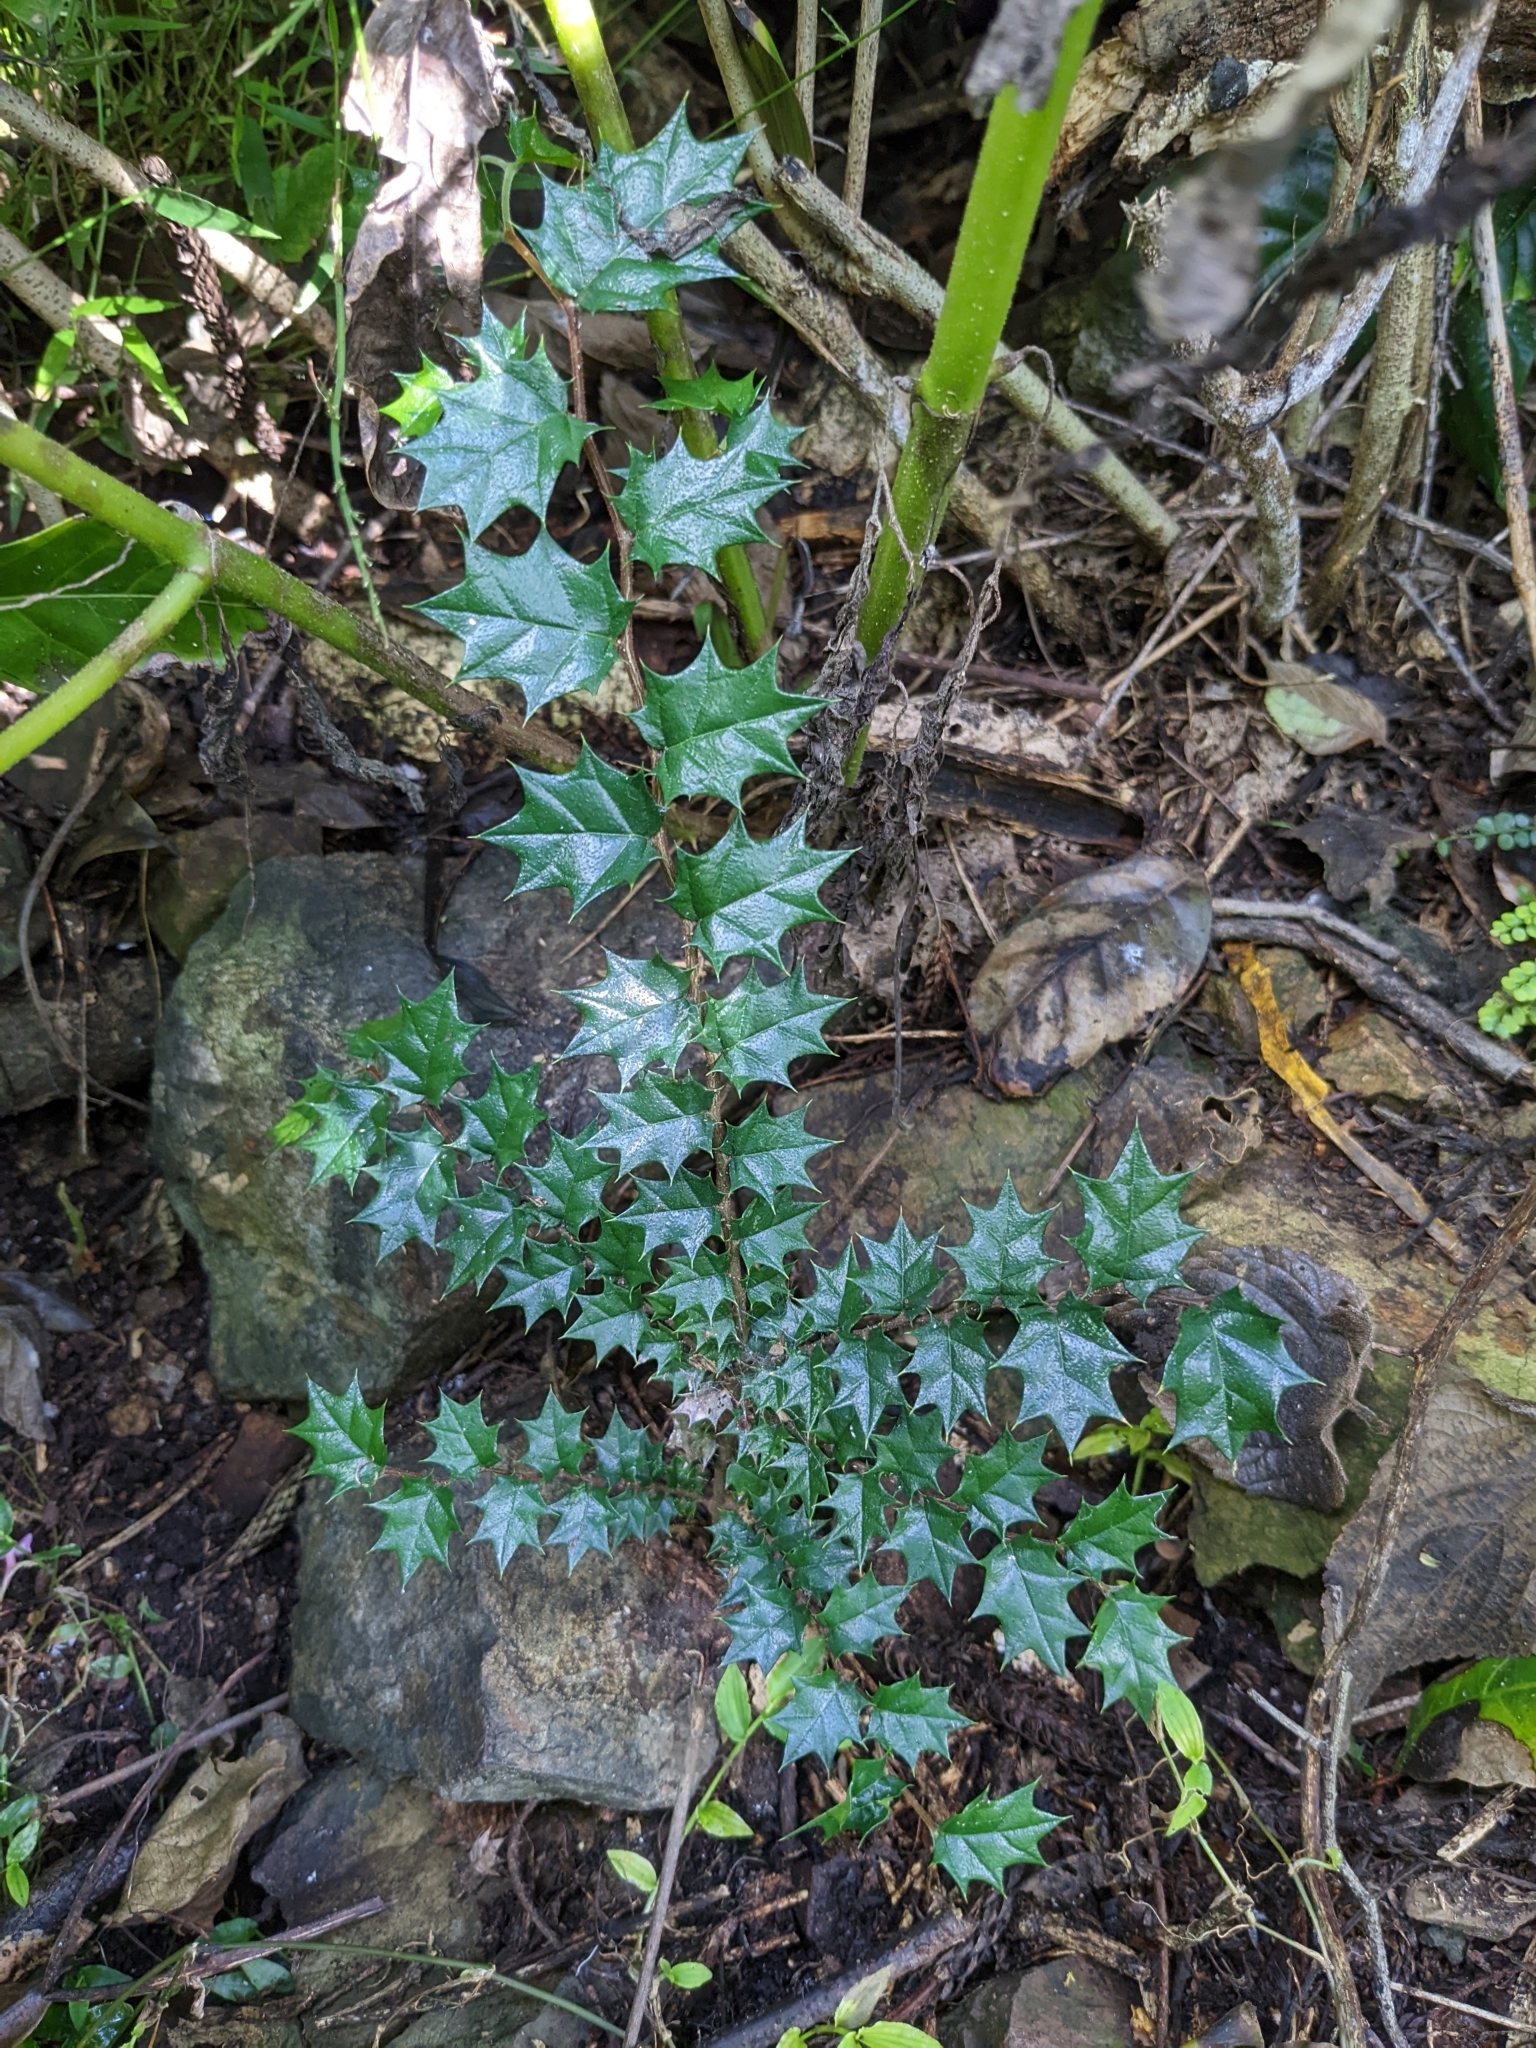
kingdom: Plantae
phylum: Tracheophyta
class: Magnoliopsida
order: Rosales
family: Cannabaceae
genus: Aphananthe
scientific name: Aphananthe philippinensis
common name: Wild holly
